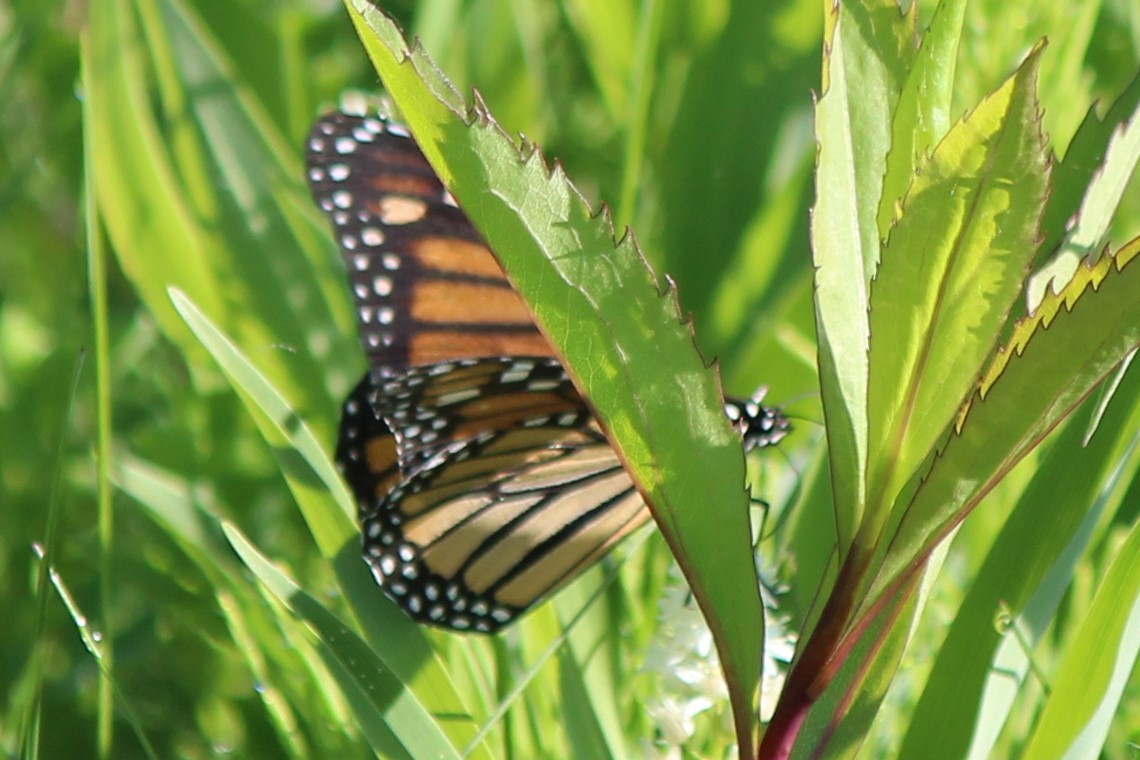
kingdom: Animalia
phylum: Arthropoda
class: Insecta
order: Lepidoptera
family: Nymphalidae
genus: Danaus
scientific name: Danaus plexippus
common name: Monarch
